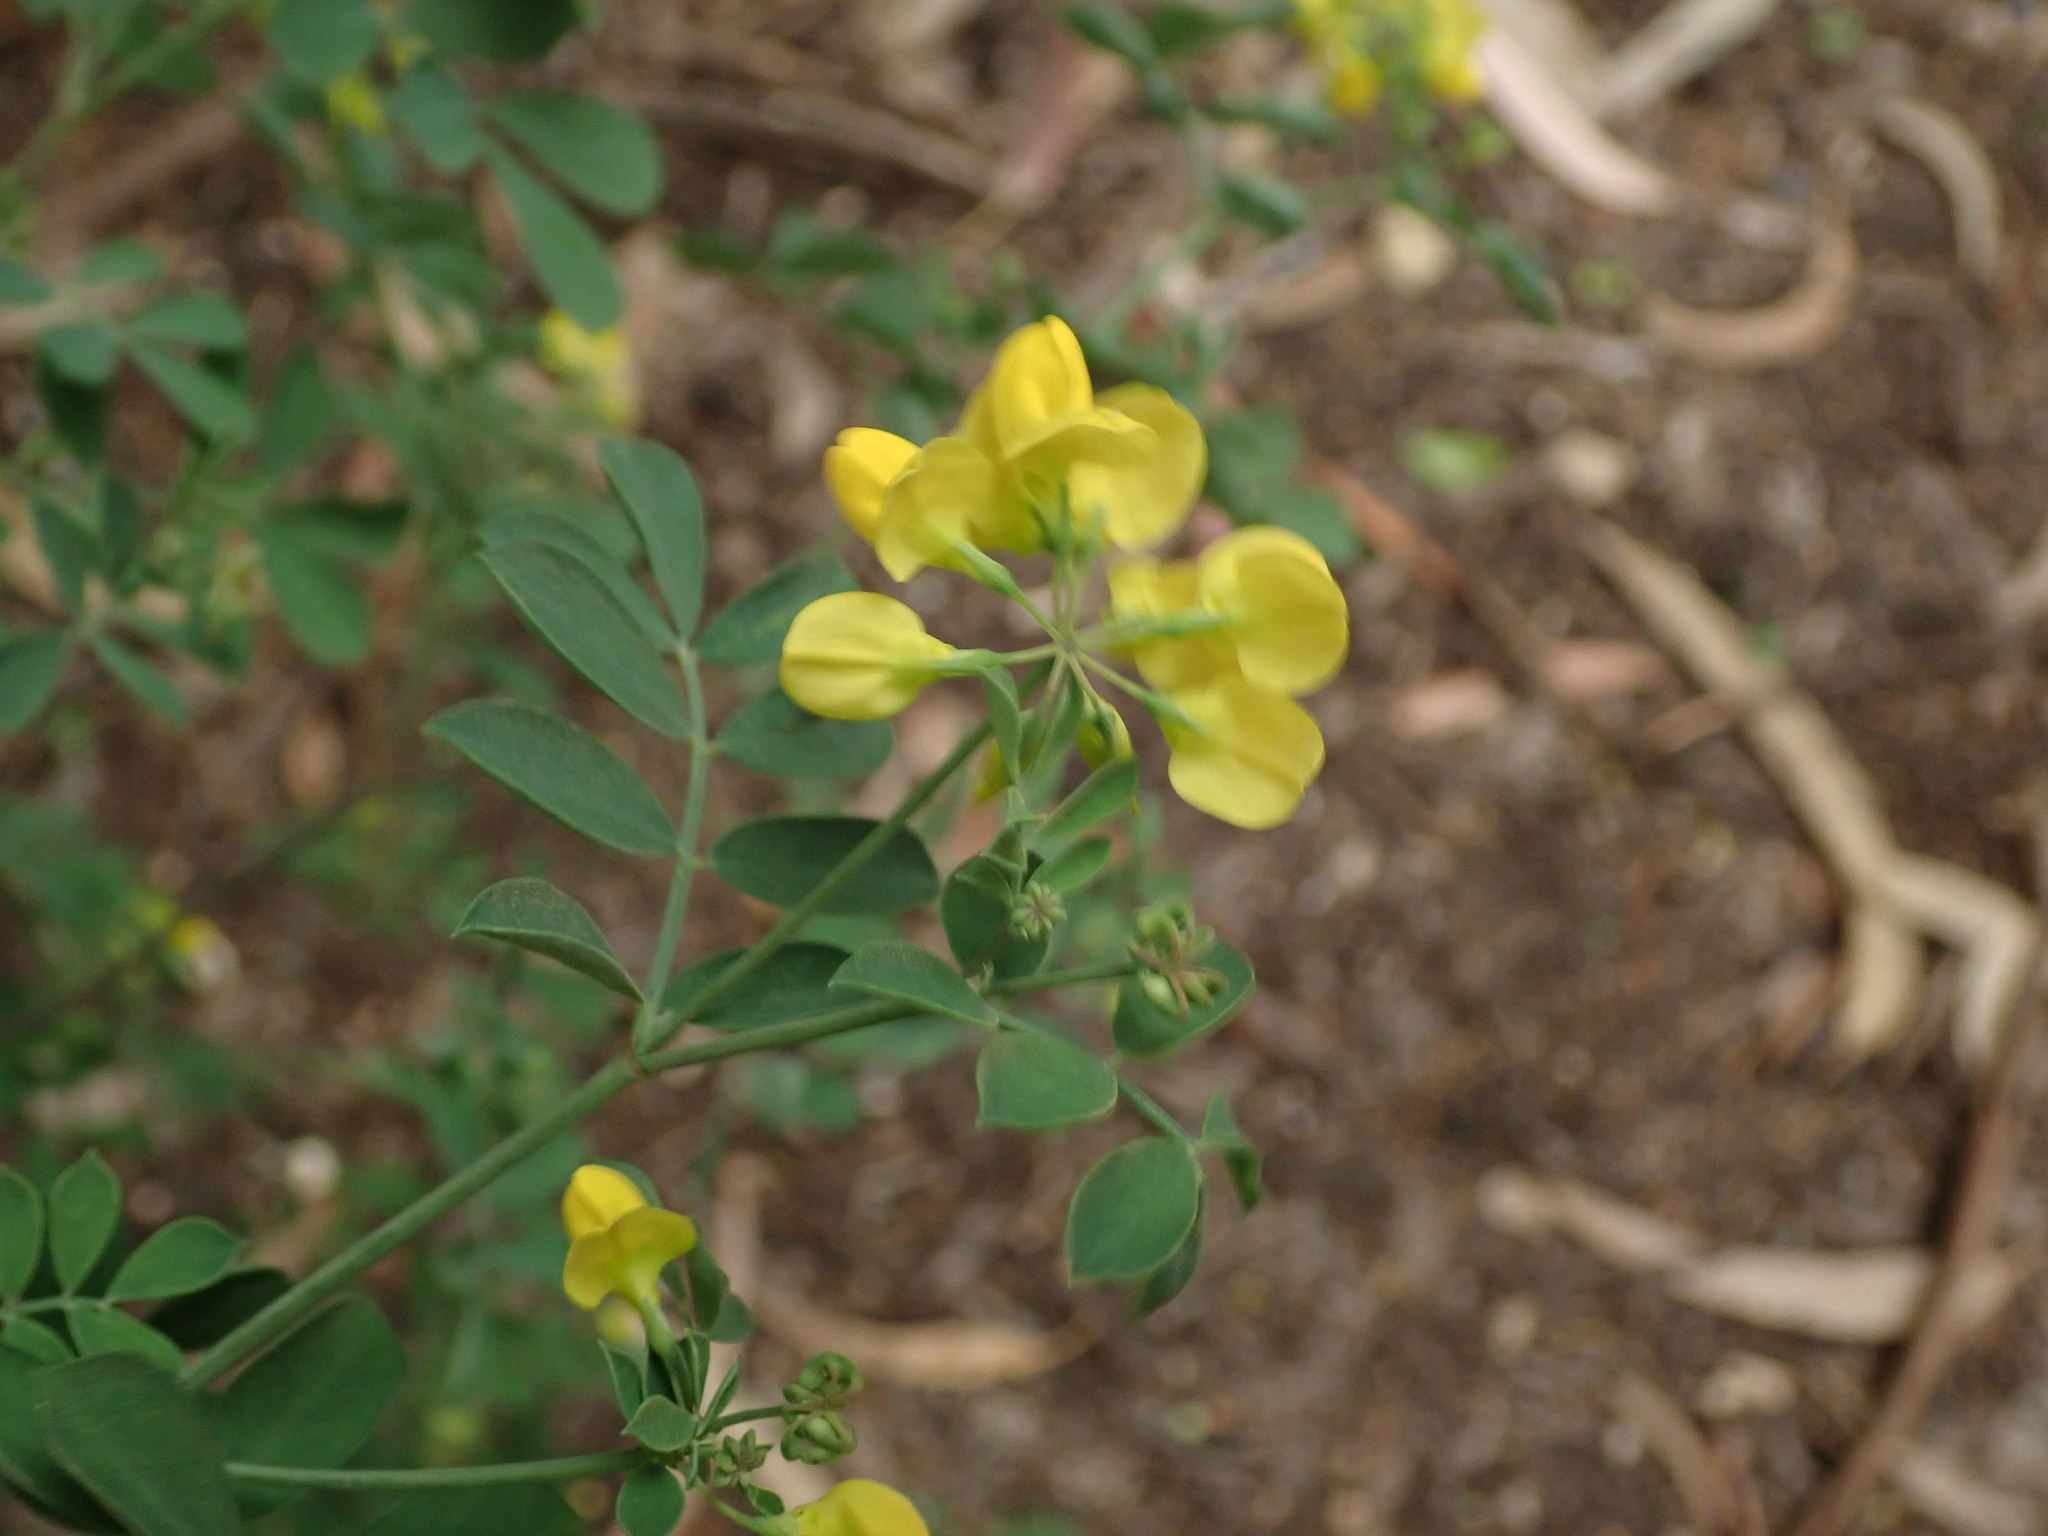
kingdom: Plantae
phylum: Tracheophyta
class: Magnoliopsida
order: Fabales
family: Fabaceae
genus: Coronilla
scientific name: Coronilla valentina
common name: Shrubby scorpion-vetch
